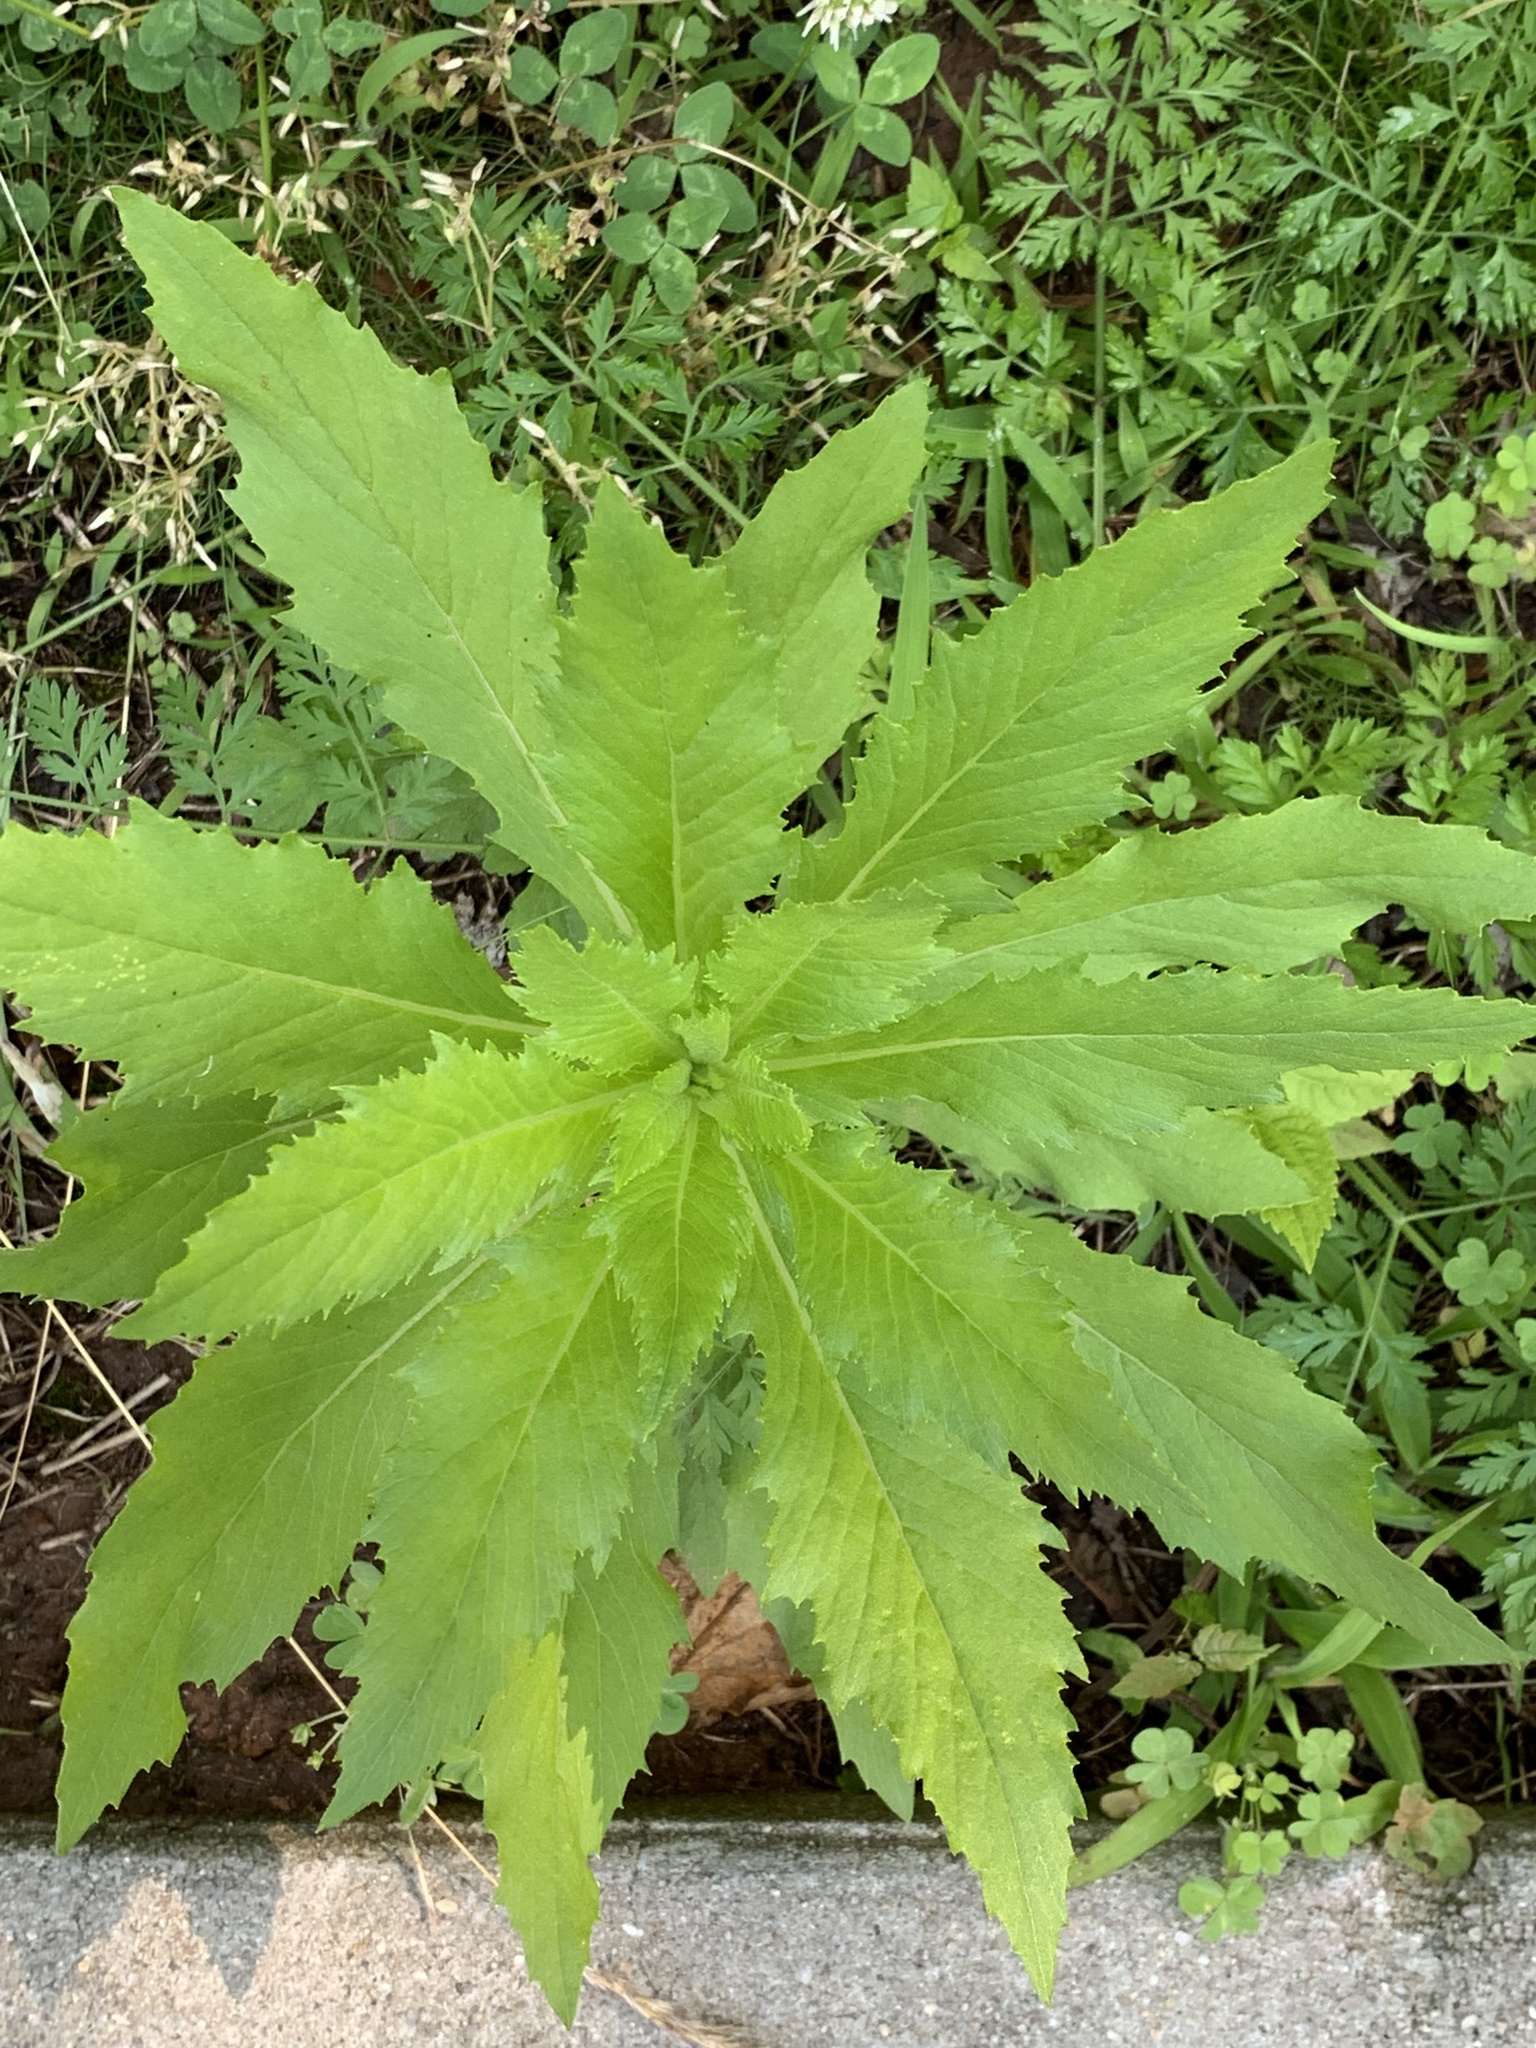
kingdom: Plantae
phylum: Tracheophyta
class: Magnoliopsida
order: Asterales
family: Asteraceae
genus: Erechtites
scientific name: Erechtites hieraciifolius
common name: American burnweed
